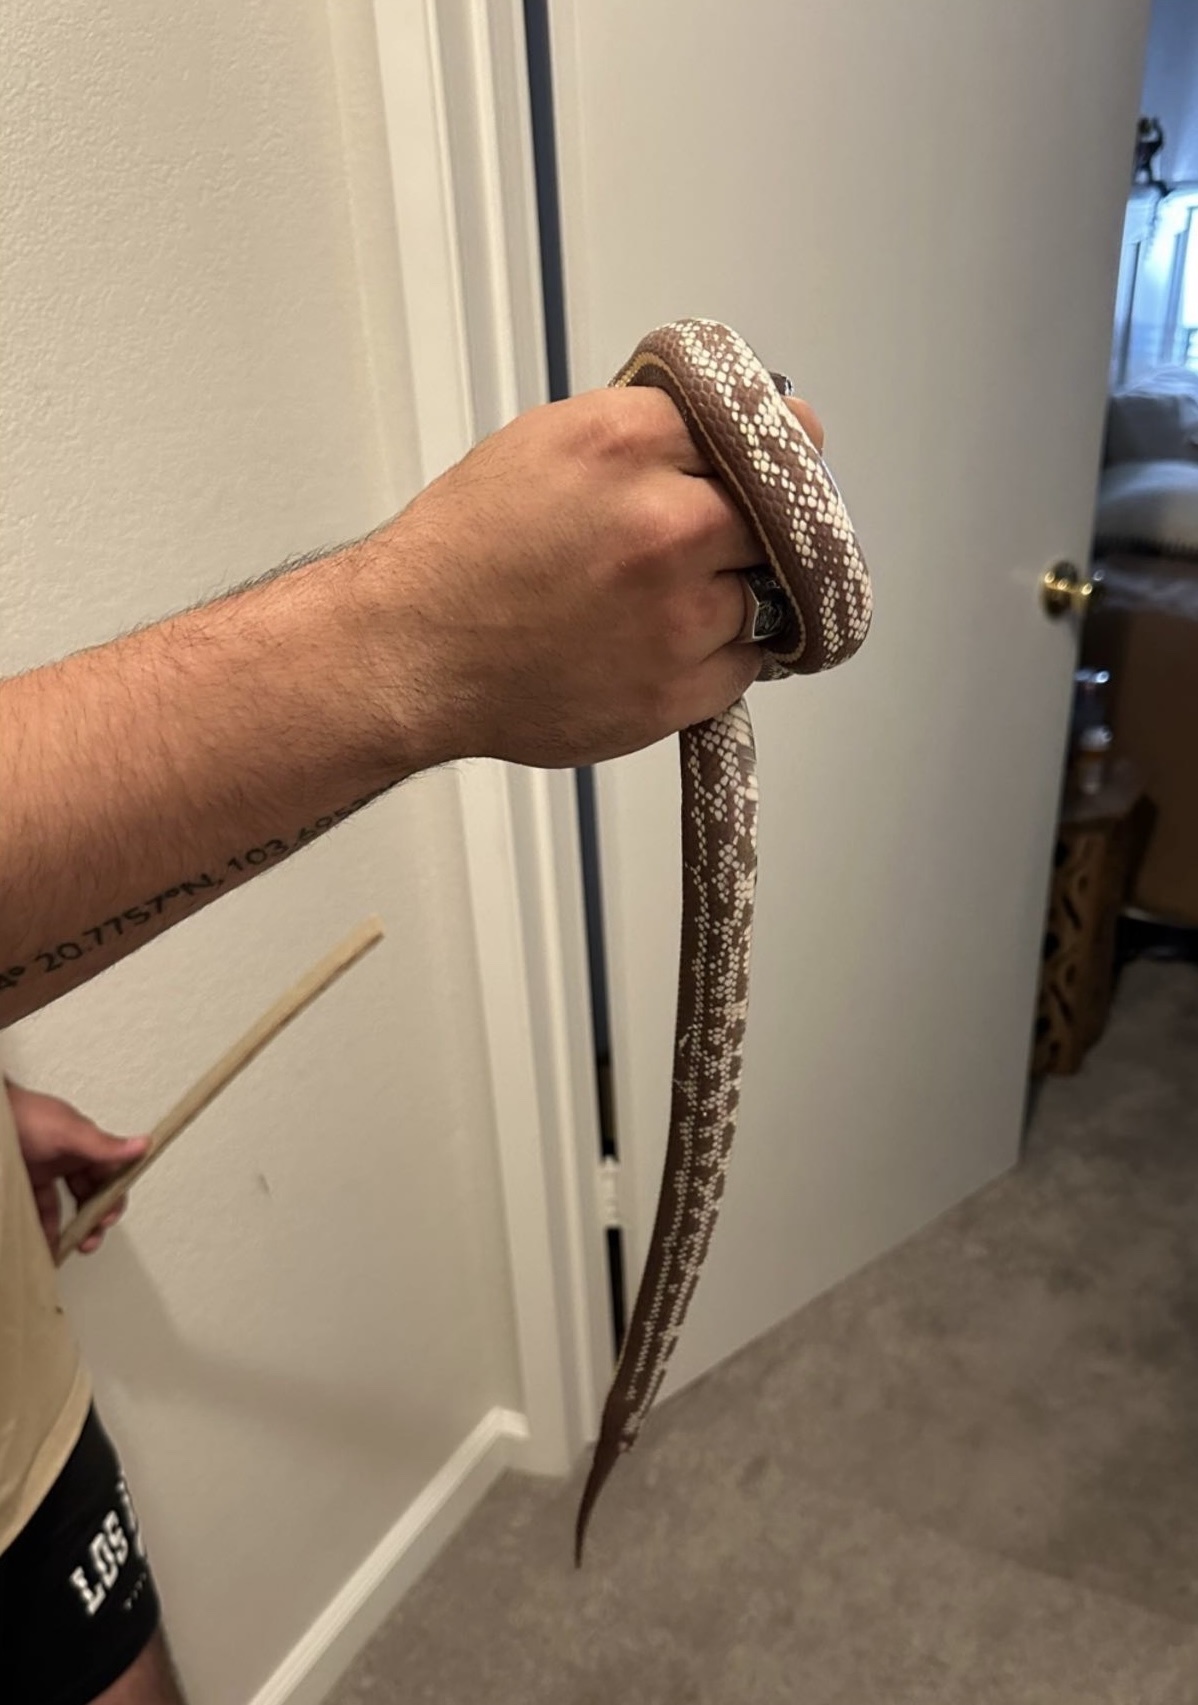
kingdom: Animalia
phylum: Chordata
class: Squamata
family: Colubridae
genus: Lampropeltis
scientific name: Lampropeltis californiae
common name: California kingsnake
